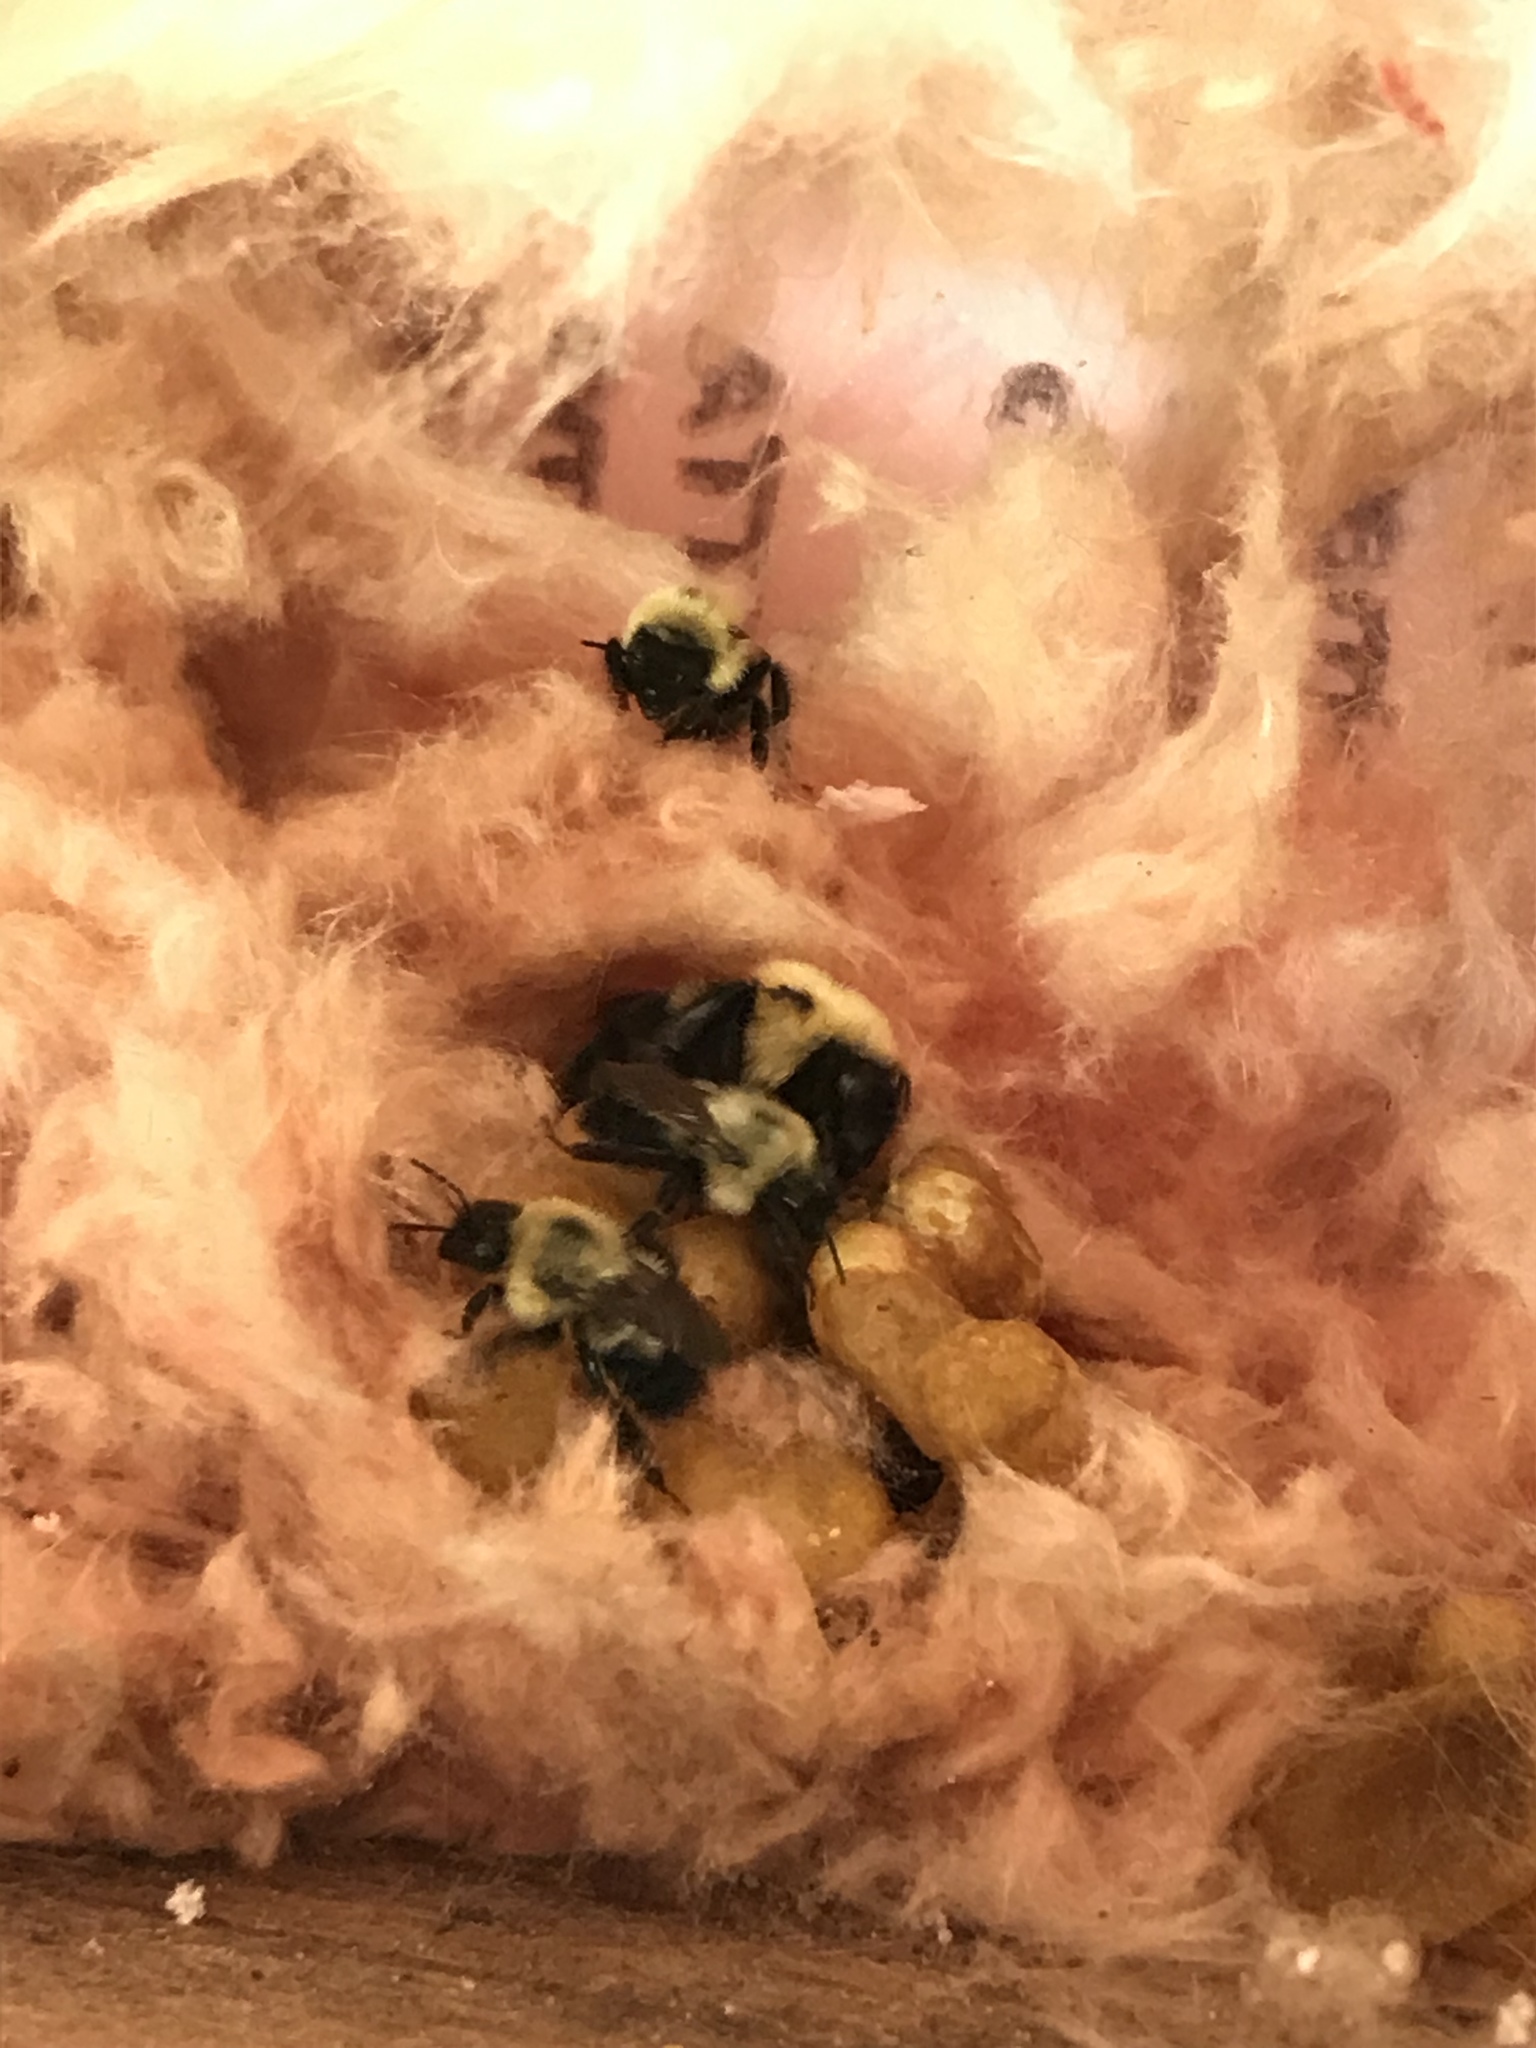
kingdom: Animalia
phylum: Arthropoda
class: Insecta
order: Hymenoptera
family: Apidae
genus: Bombus
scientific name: Bombus bimaculatus
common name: Two-spotted bumble bee
